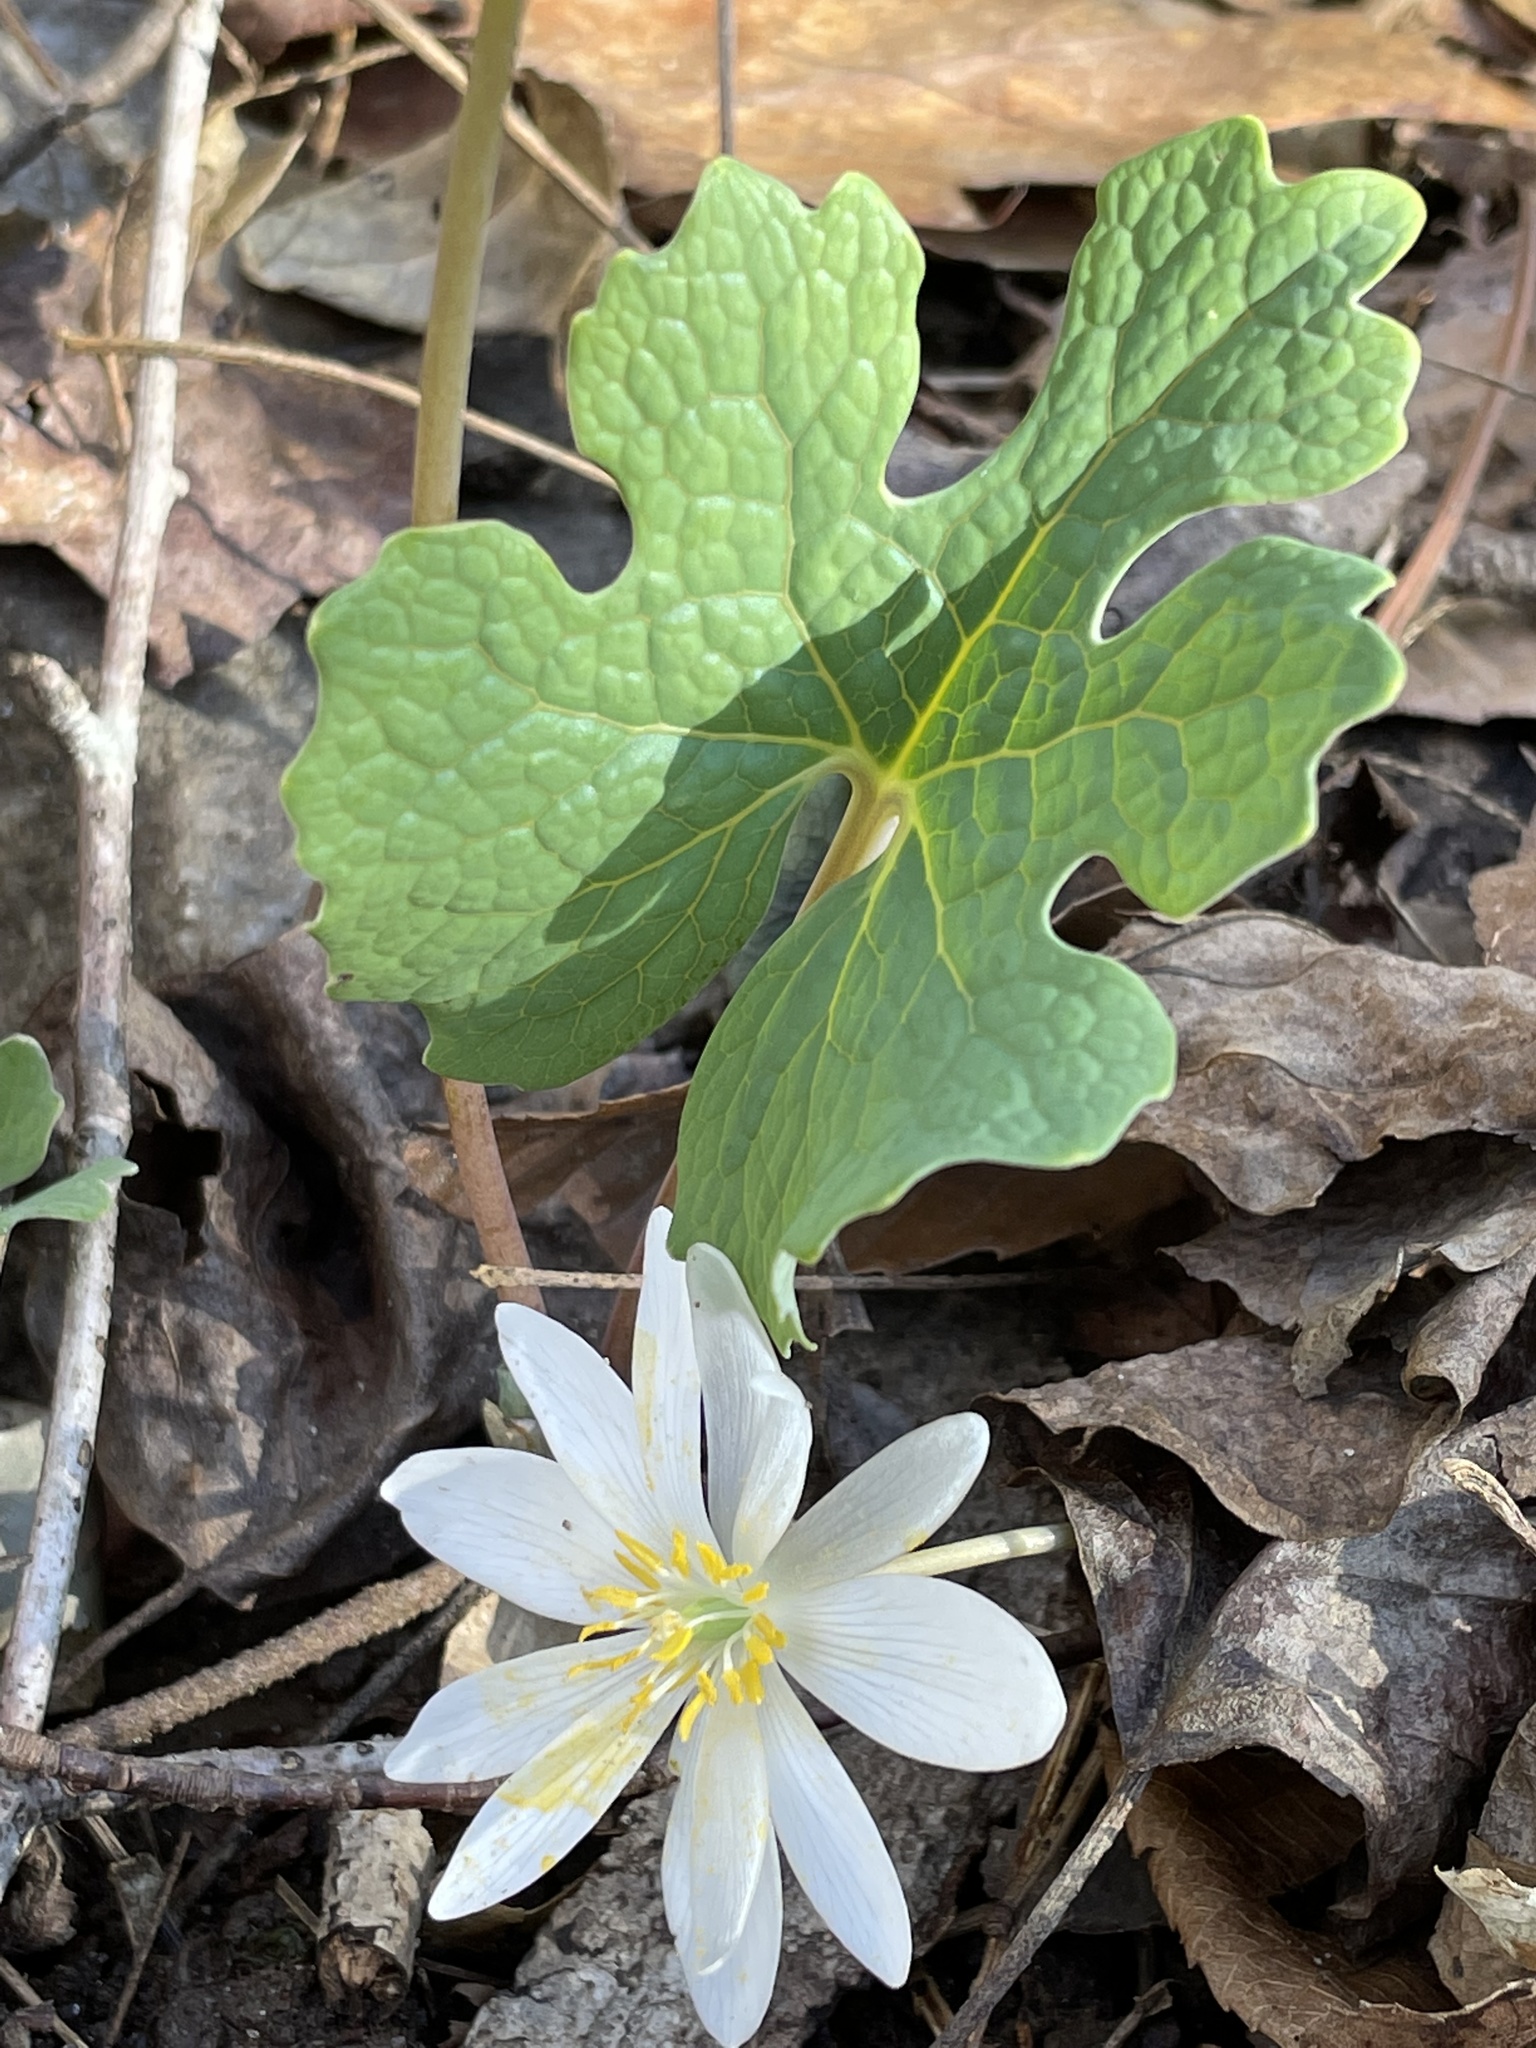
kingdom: Plantae
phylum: Tracheophyta
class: Magnoliopsida
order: Ranunculales
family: Papaveraceae
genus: Sanguinaria
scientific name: Sanguinaria canadensis
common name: Bloodroot
